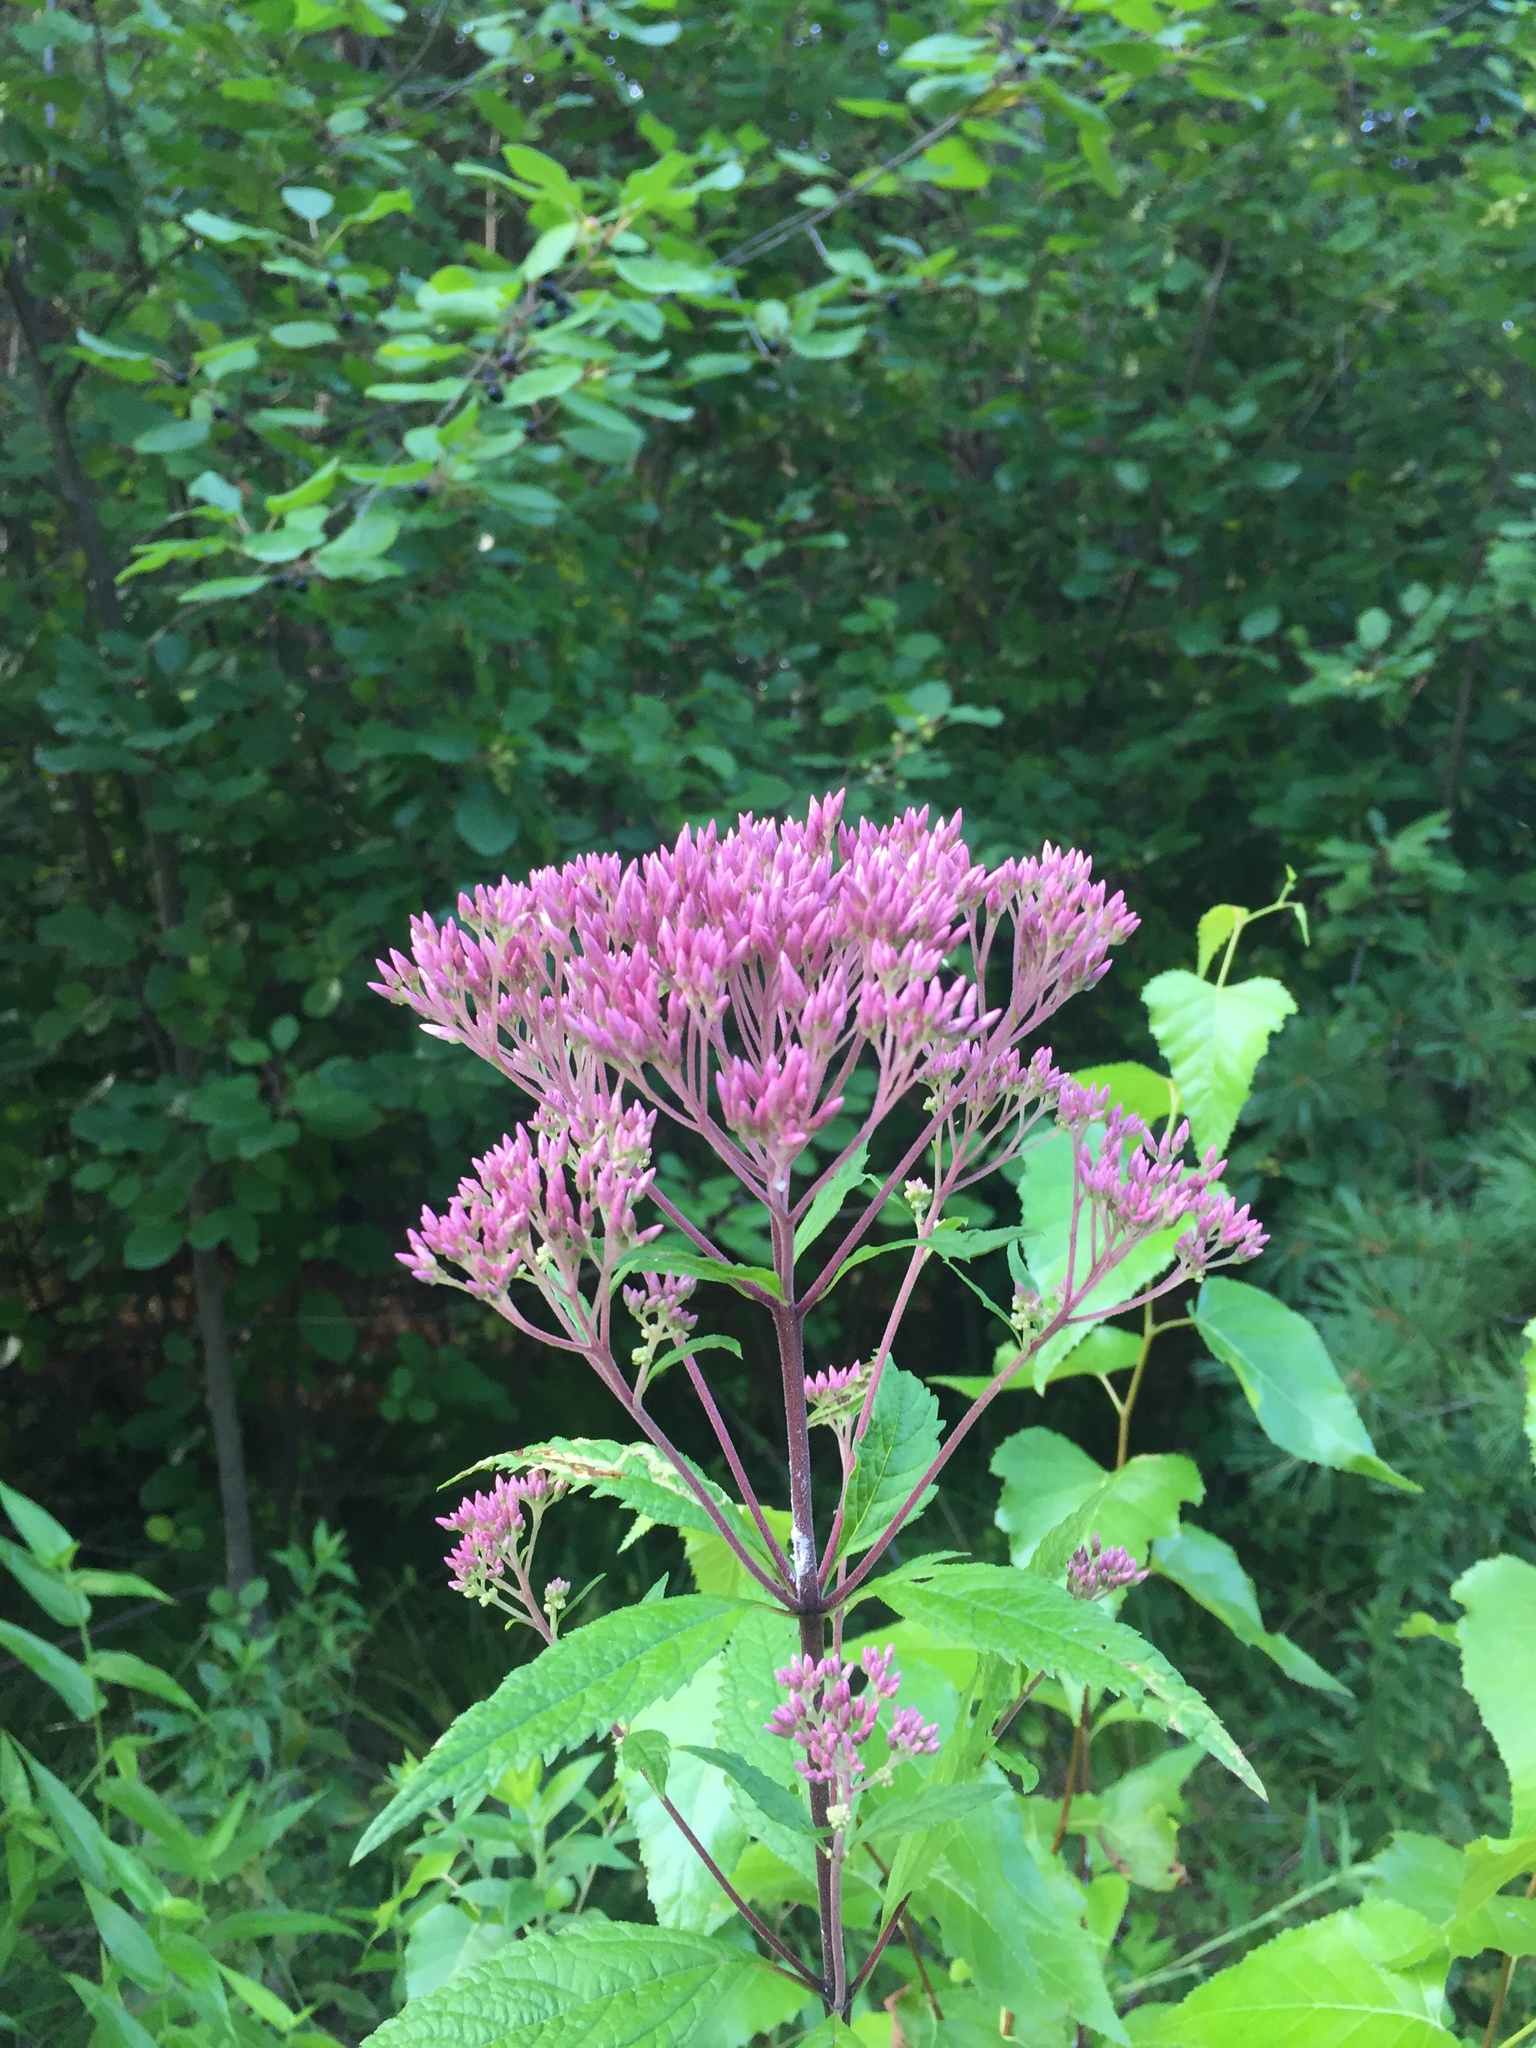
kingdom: Plantae
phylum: Tracheophyta
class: Magnoliopsida
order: Asterales
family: Asteraceae
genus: Eutrochium
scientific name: Eutrochium dubium
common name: Coastal plain joe pye weed
